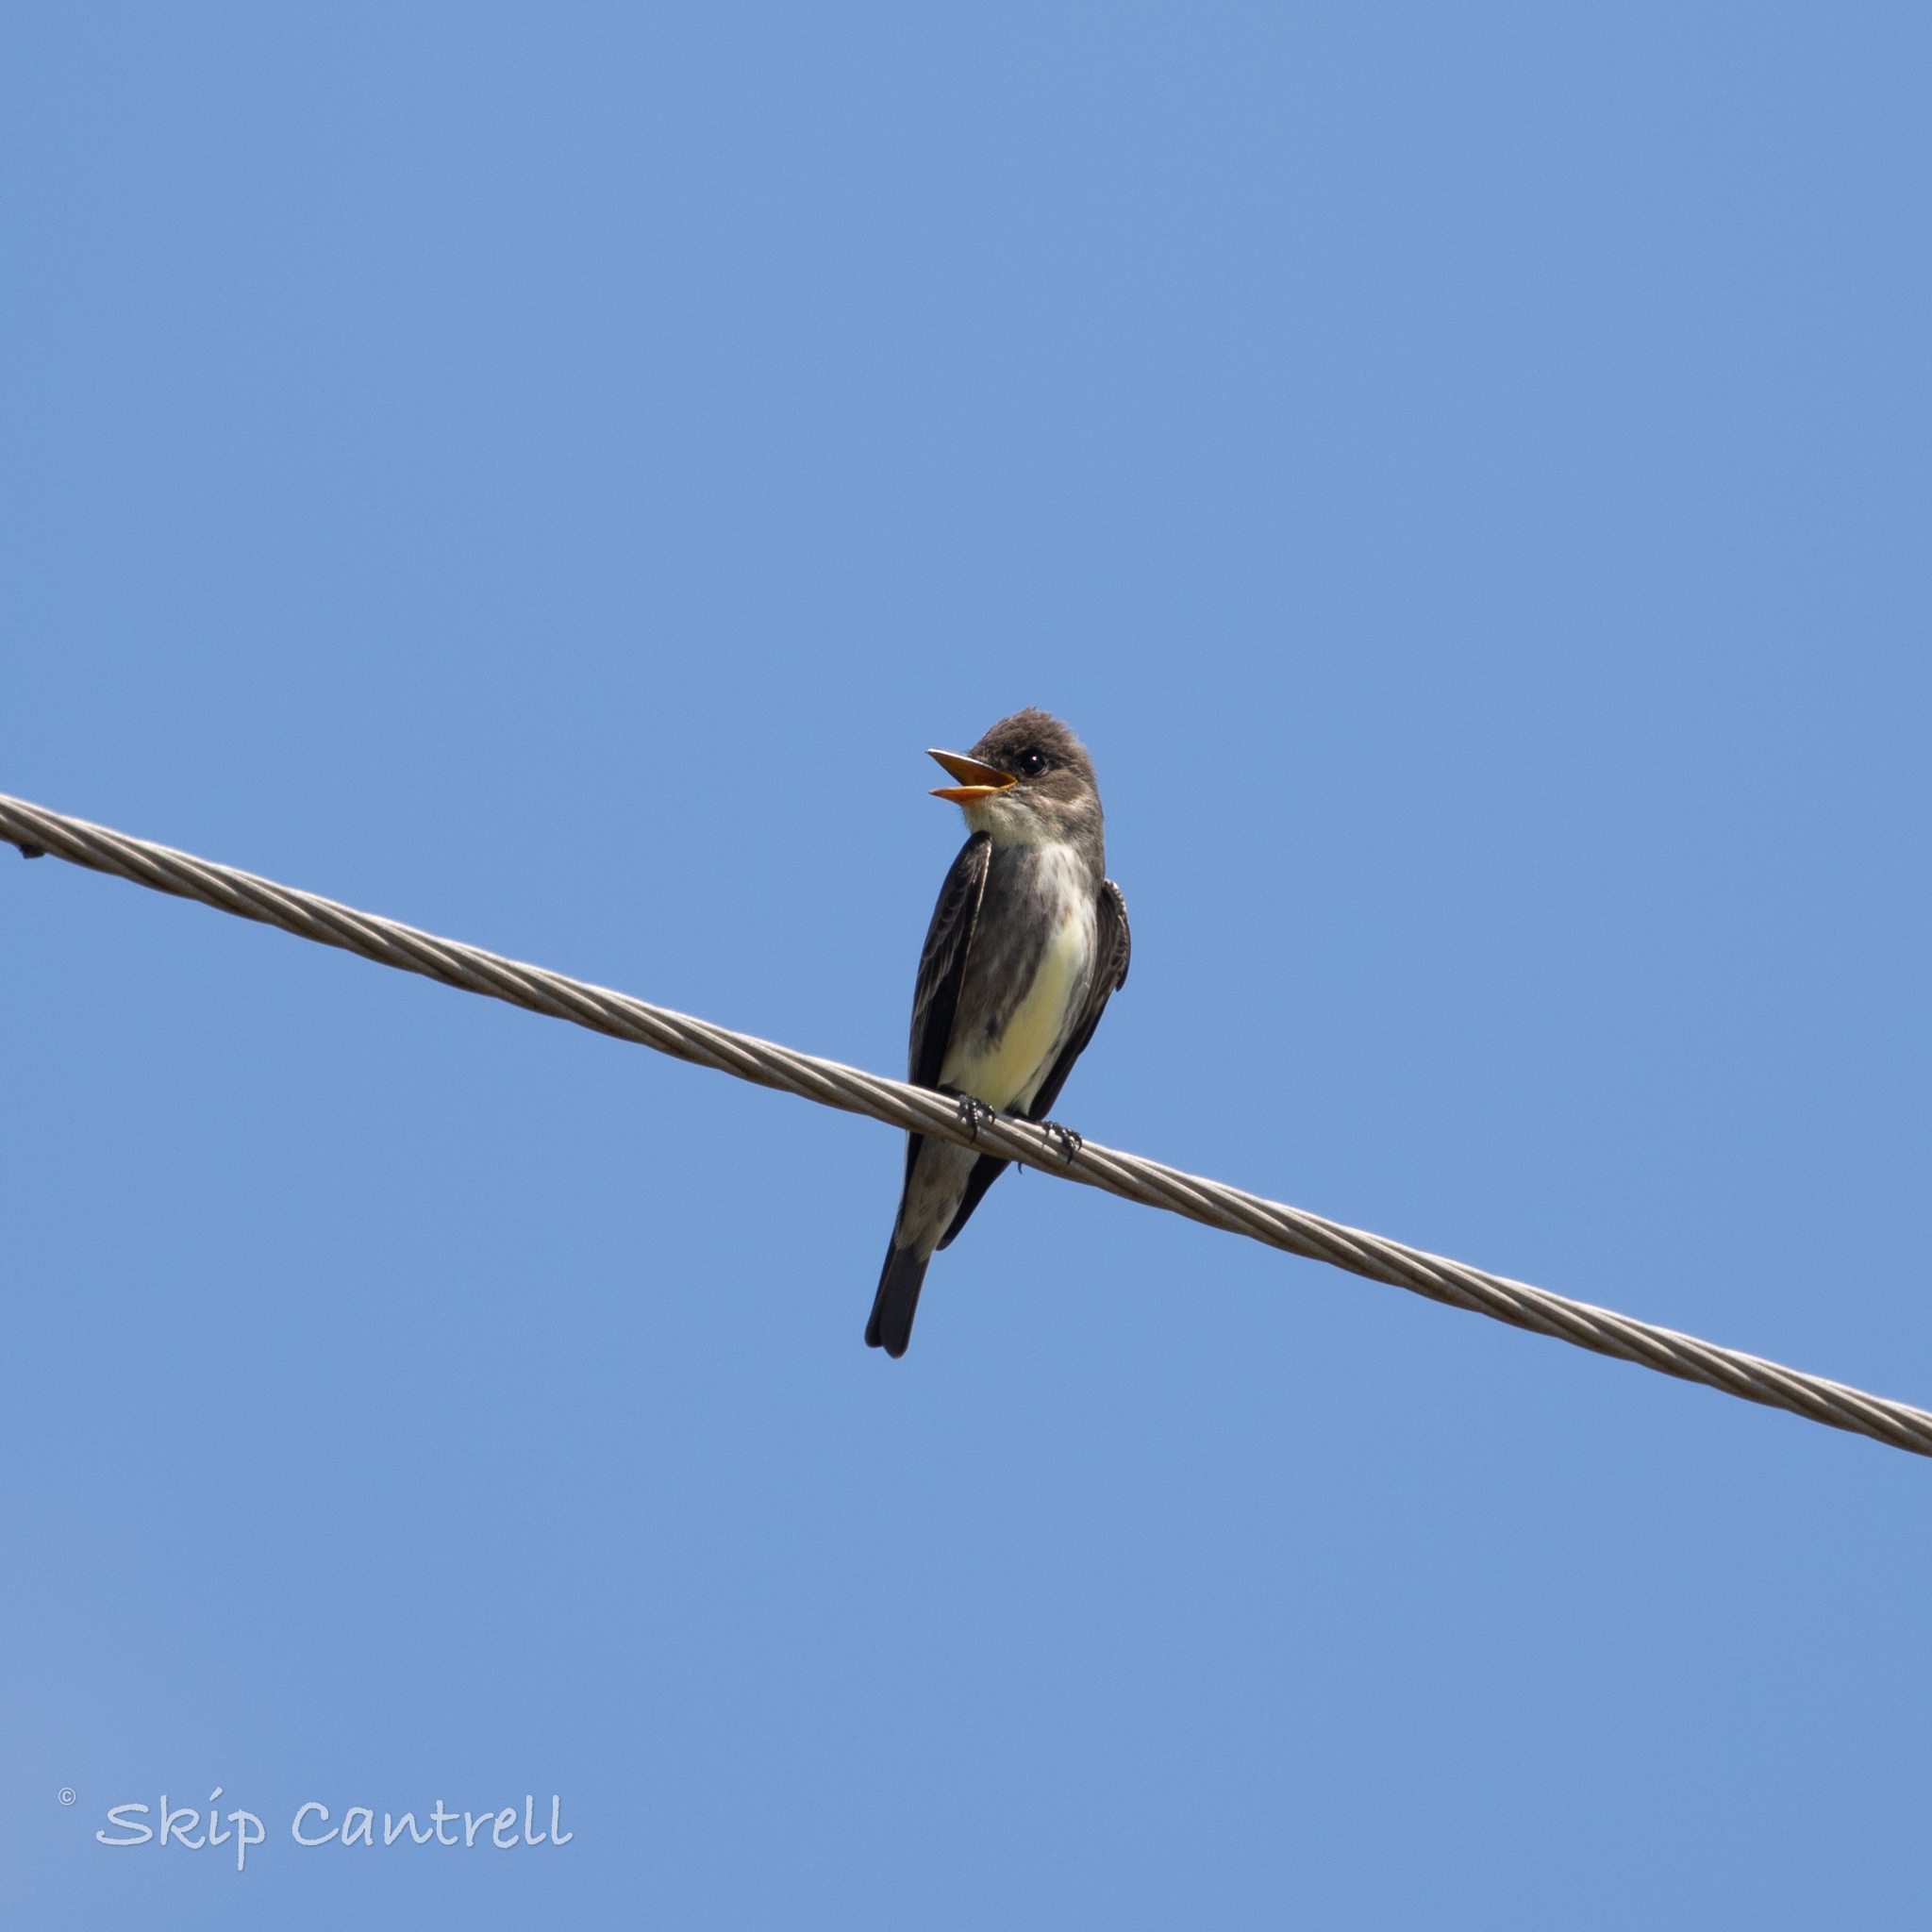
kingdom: Animalia
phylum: Chordata
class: Aves
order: Passeriformes
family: Tyrannidae
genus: Contopus
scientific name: Contopus cooperi
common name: Olive-sided flycatcher
